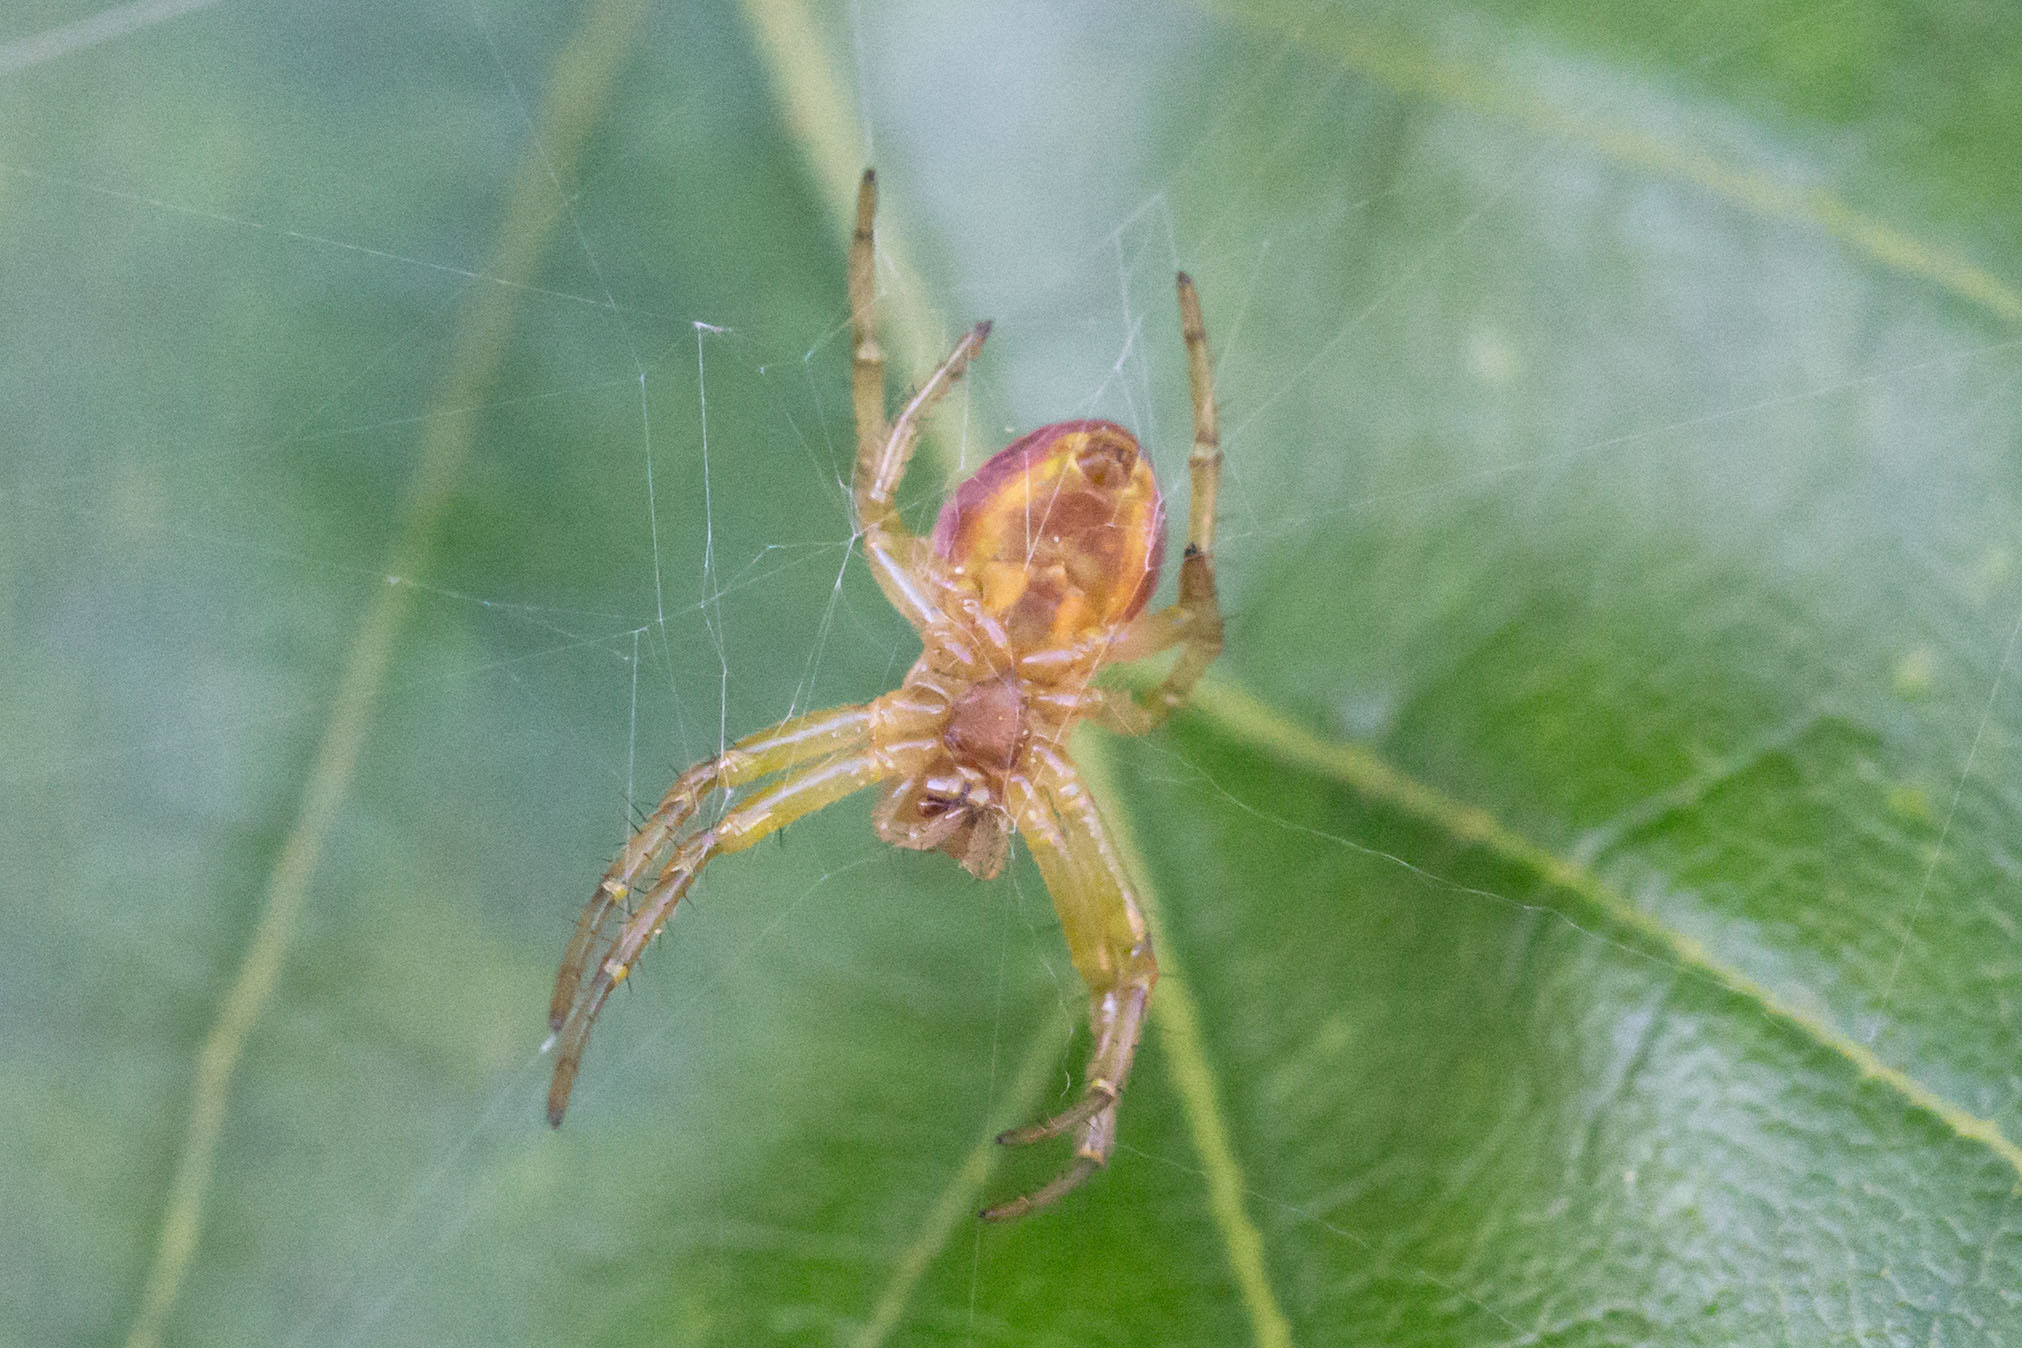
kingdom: Animalia
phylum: Arthropoda
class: Arachnida
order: Araneae
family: Araneidae
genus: Araniella
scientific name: Araniella displicata
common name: Sixspotted orb weaver
